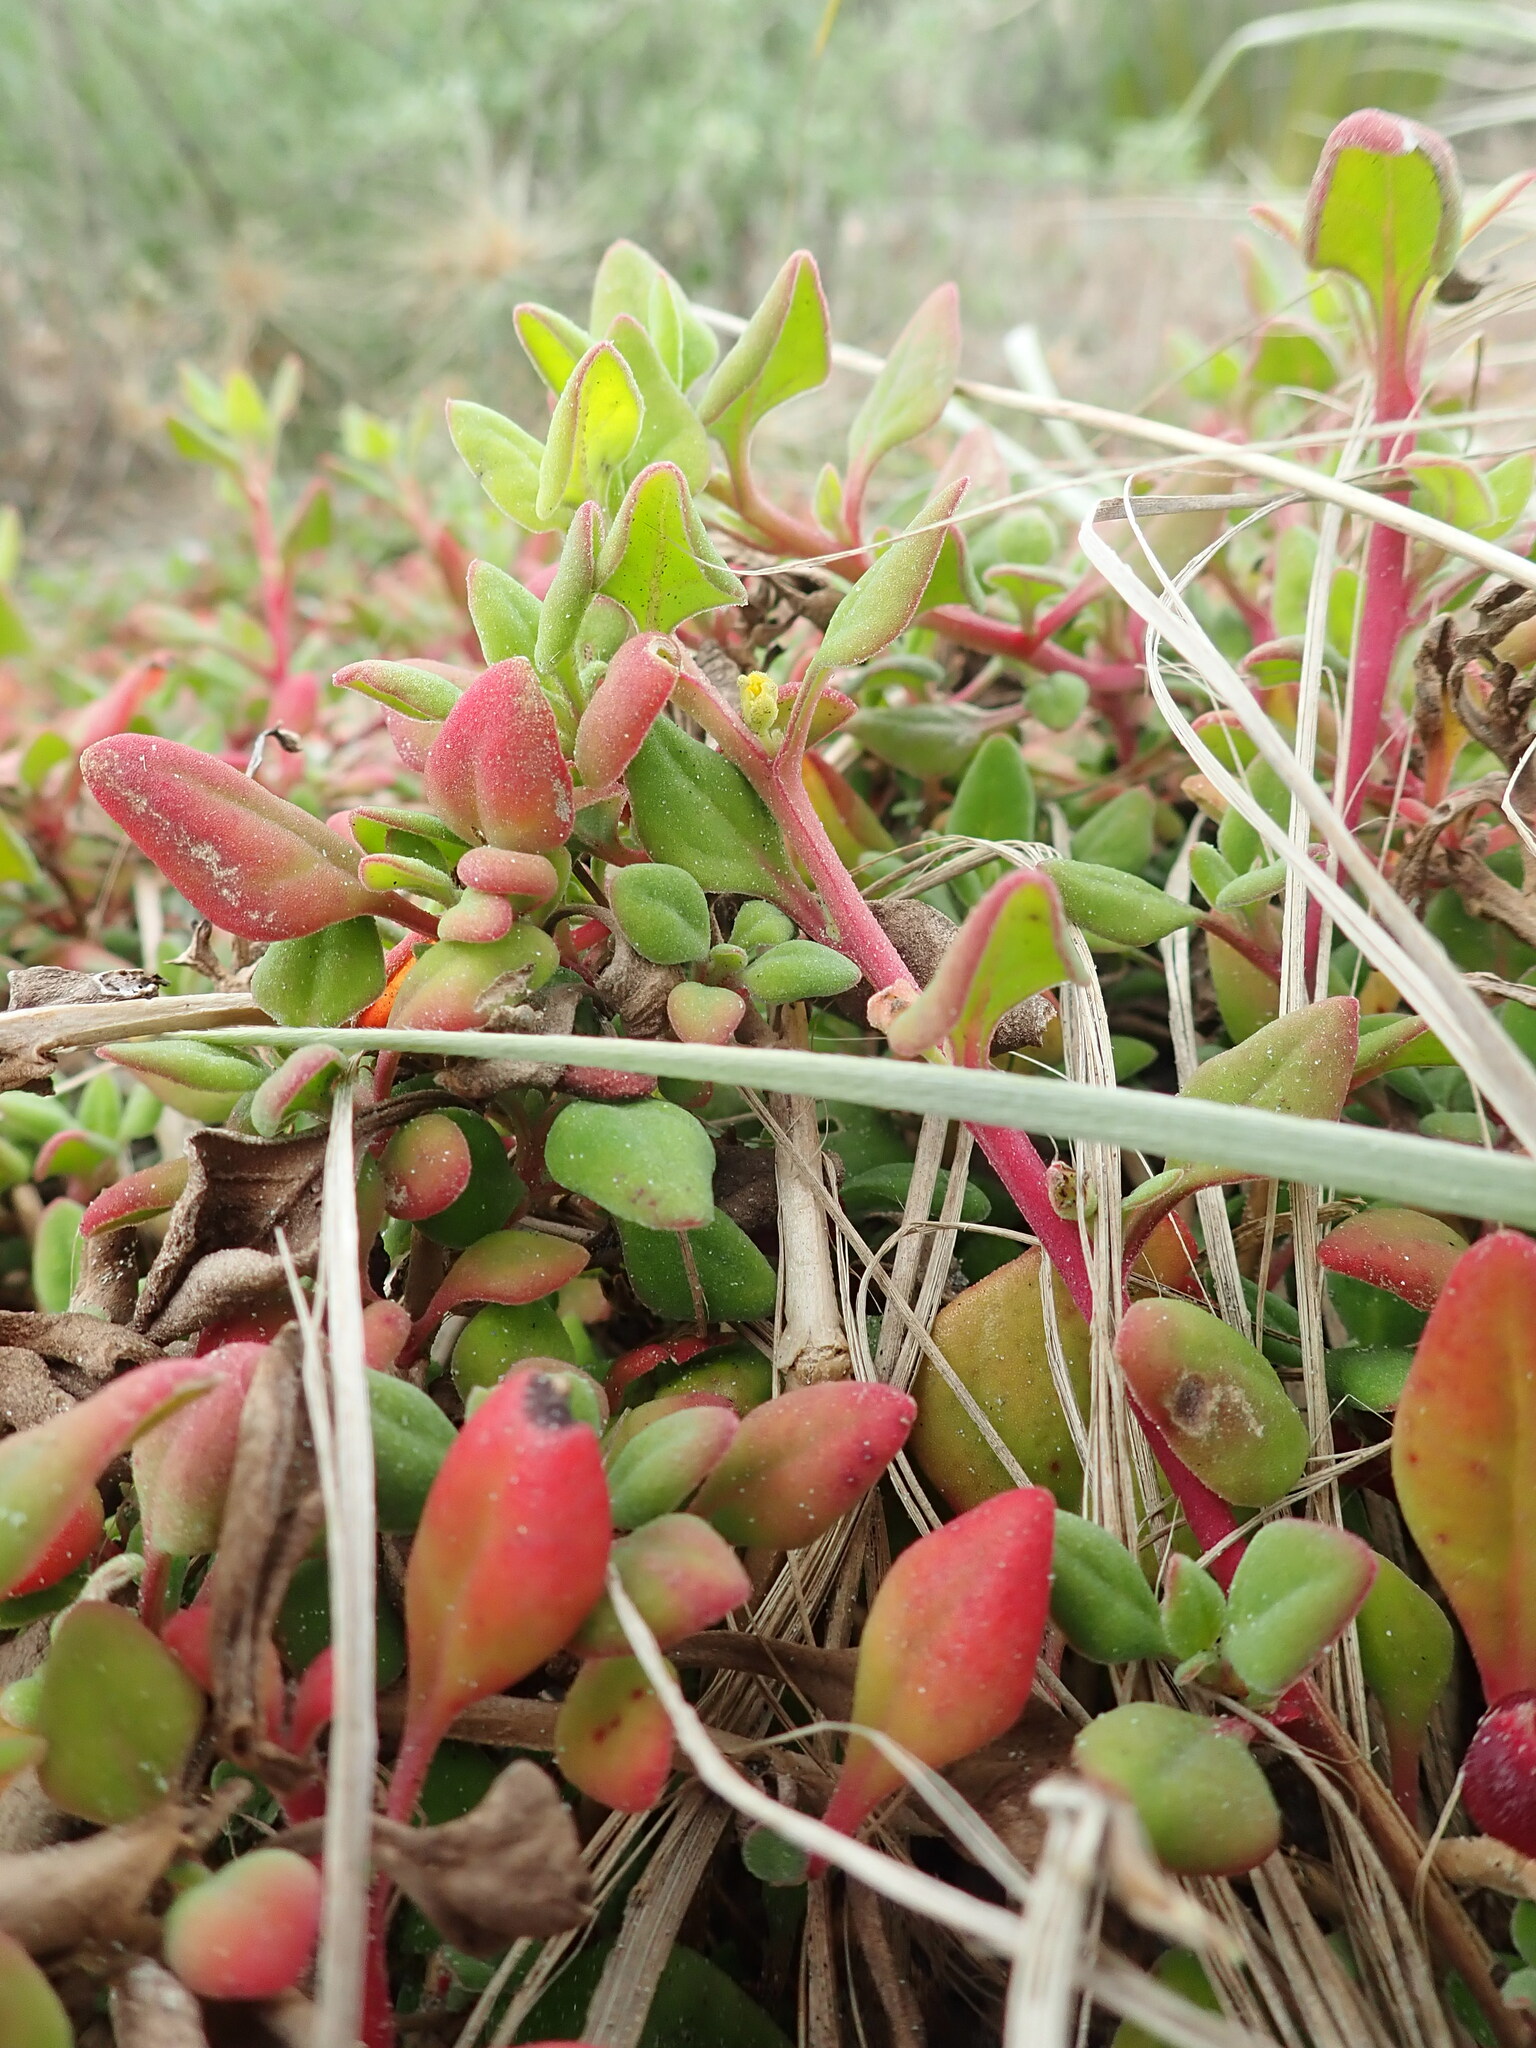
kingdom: Plantae
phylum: Tracheophyta
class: Magnoliopsida
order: Caryophyllales
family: Aizoaceae
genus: Tetragonia
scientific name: Tetragonia implexicoma
